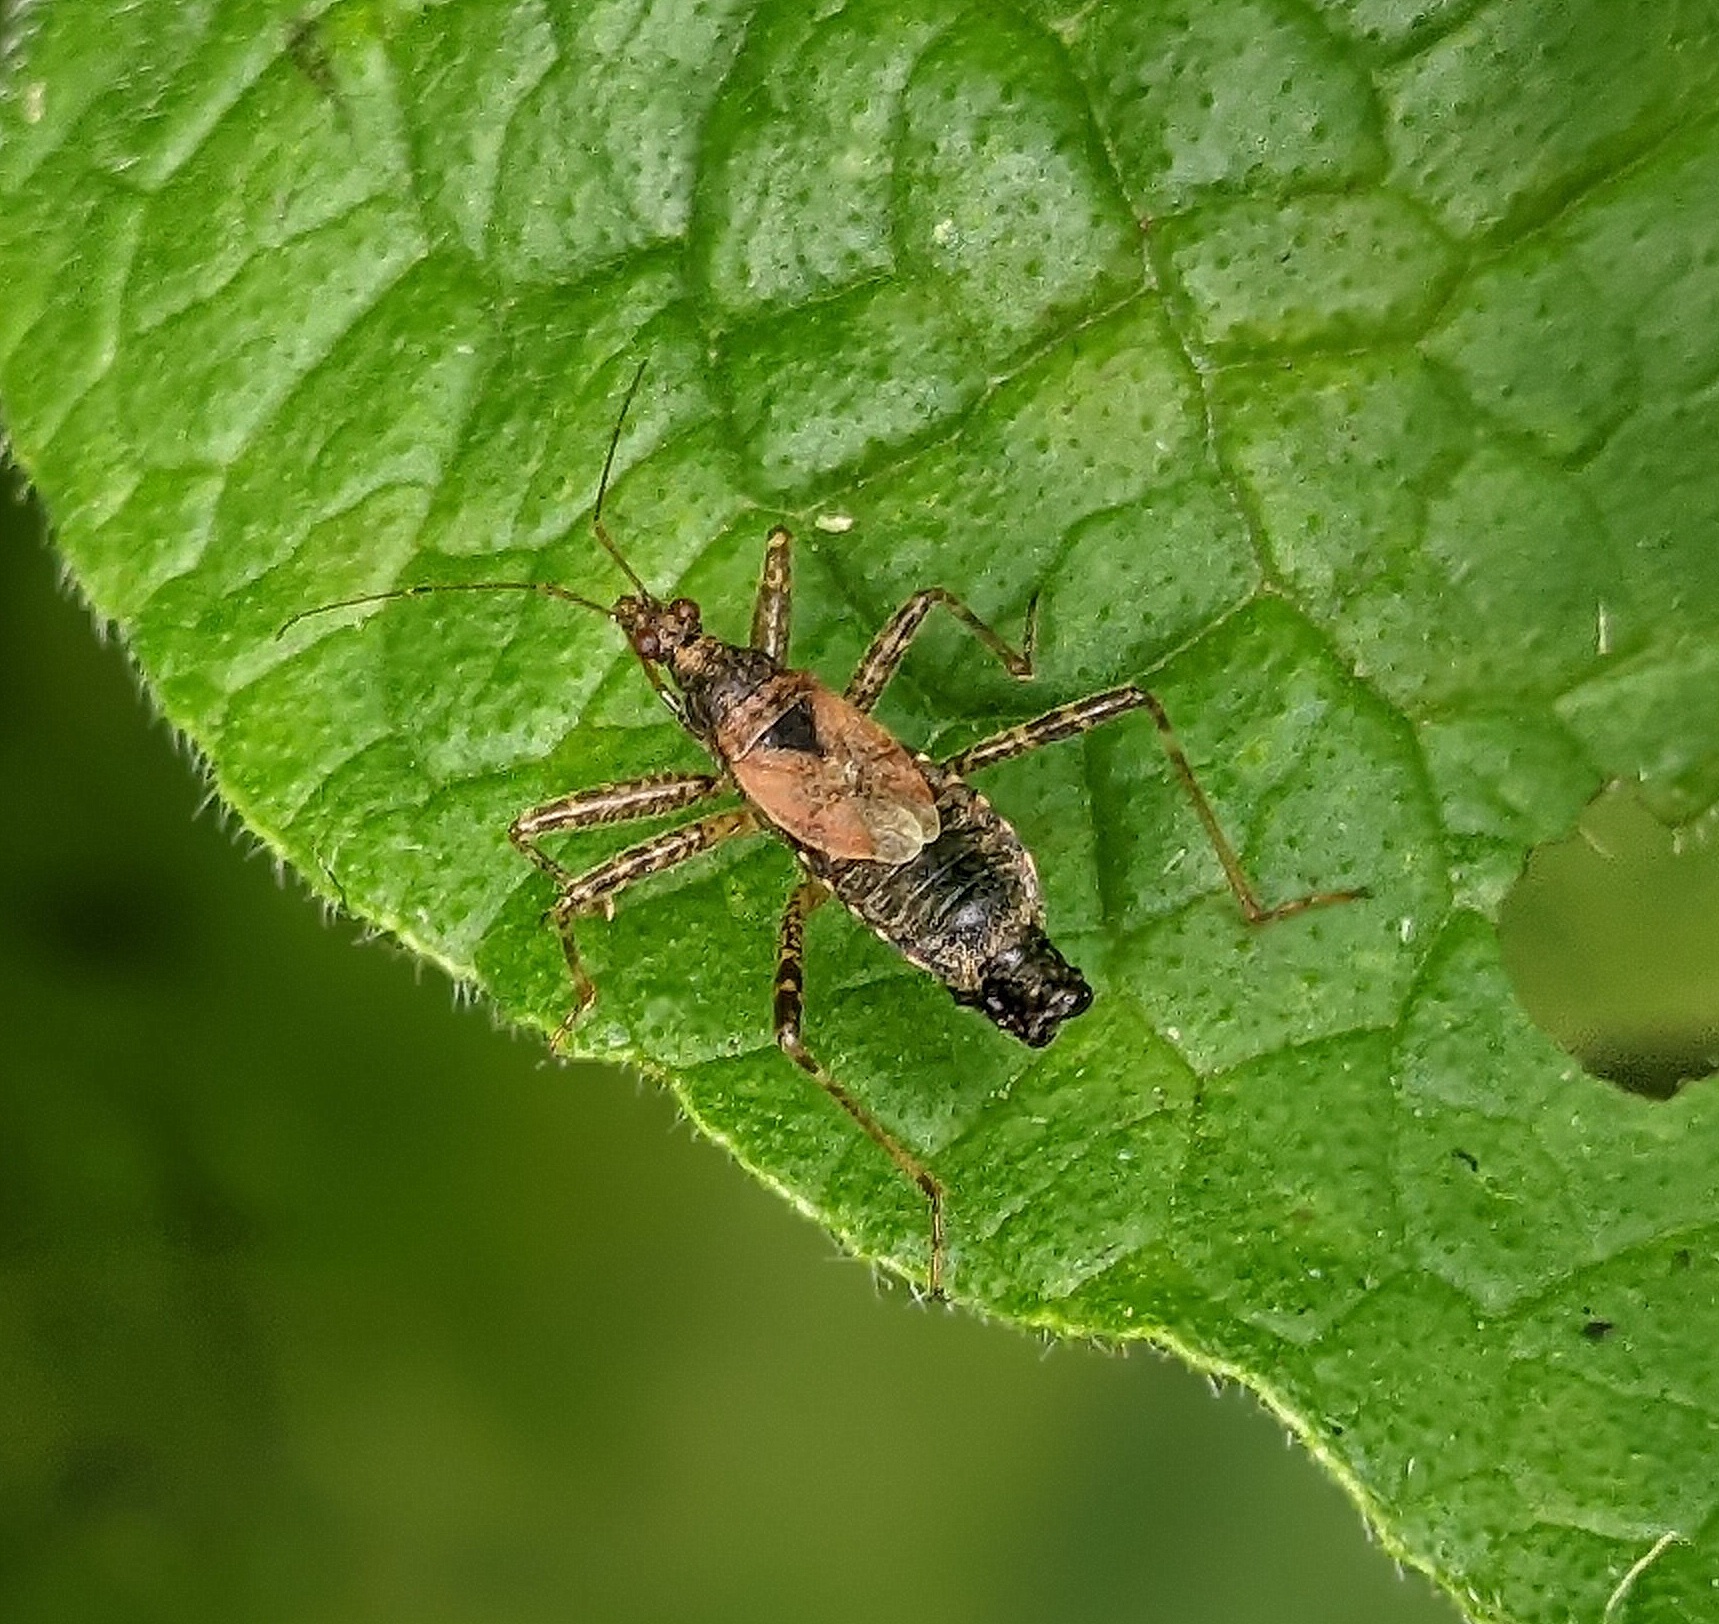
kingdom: Animalia
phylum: Arthropoda
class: Insecta
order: Hemiptera
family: Nabidae
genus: Himacerus
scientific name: Himacerus apterus
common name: Tree damsel bug
